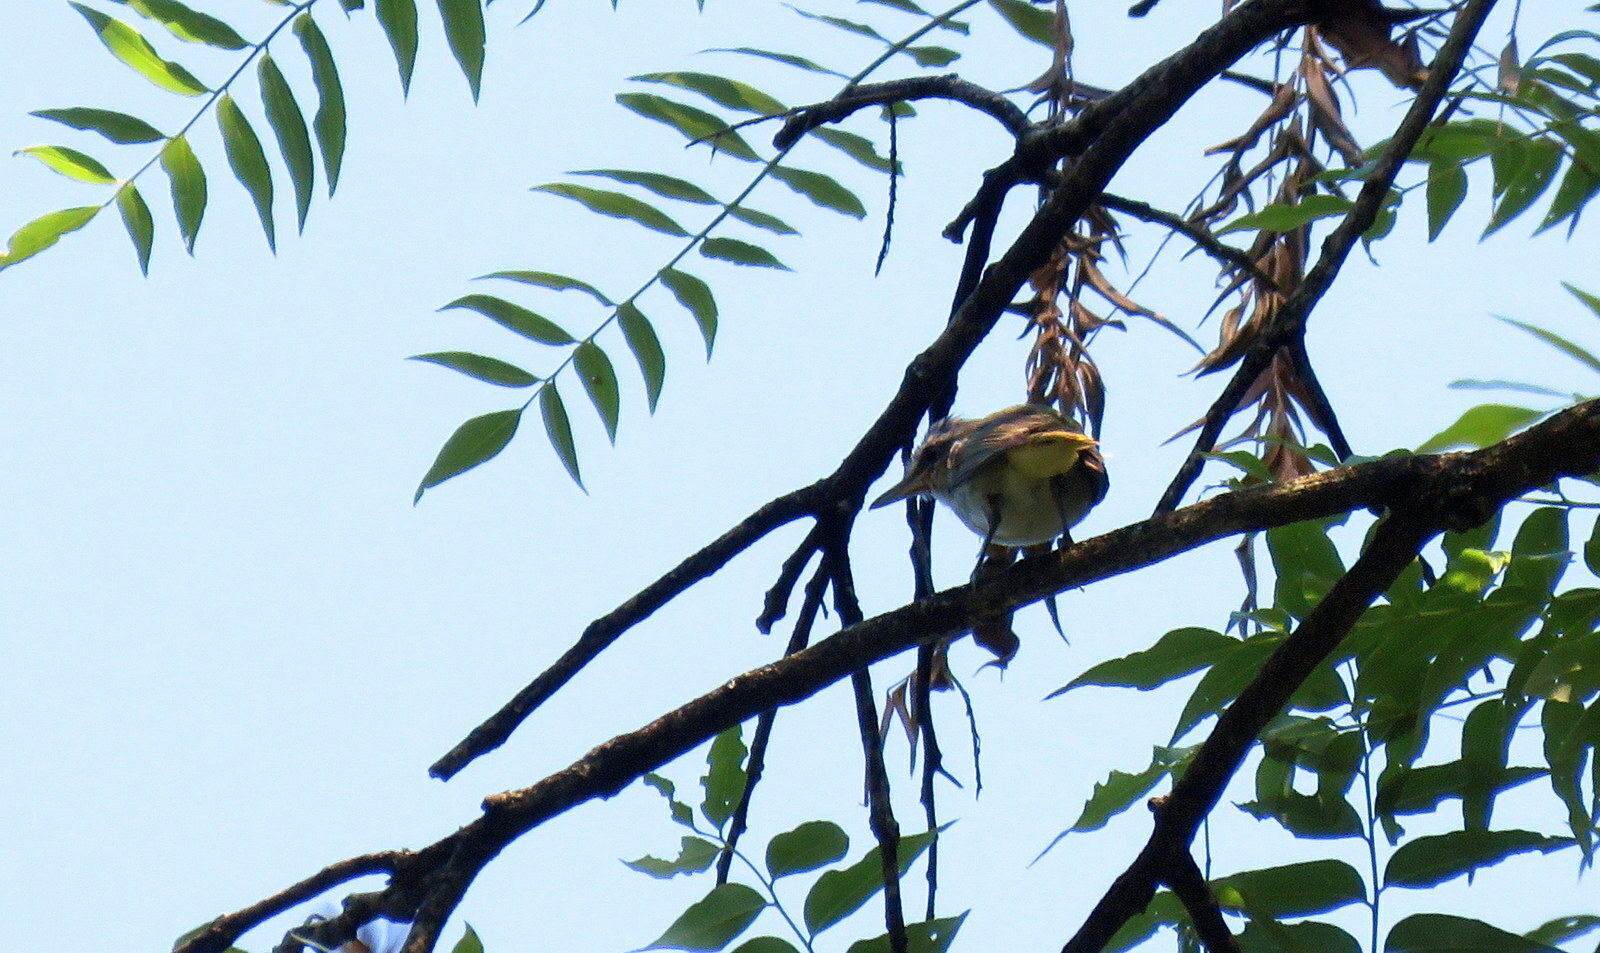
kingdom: Animalia
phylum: Chordata
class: Aves
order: Passeriformes
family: Vireonidae
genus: Vireo
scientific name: Vireo olivaceus
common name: Red-eyed vireo
